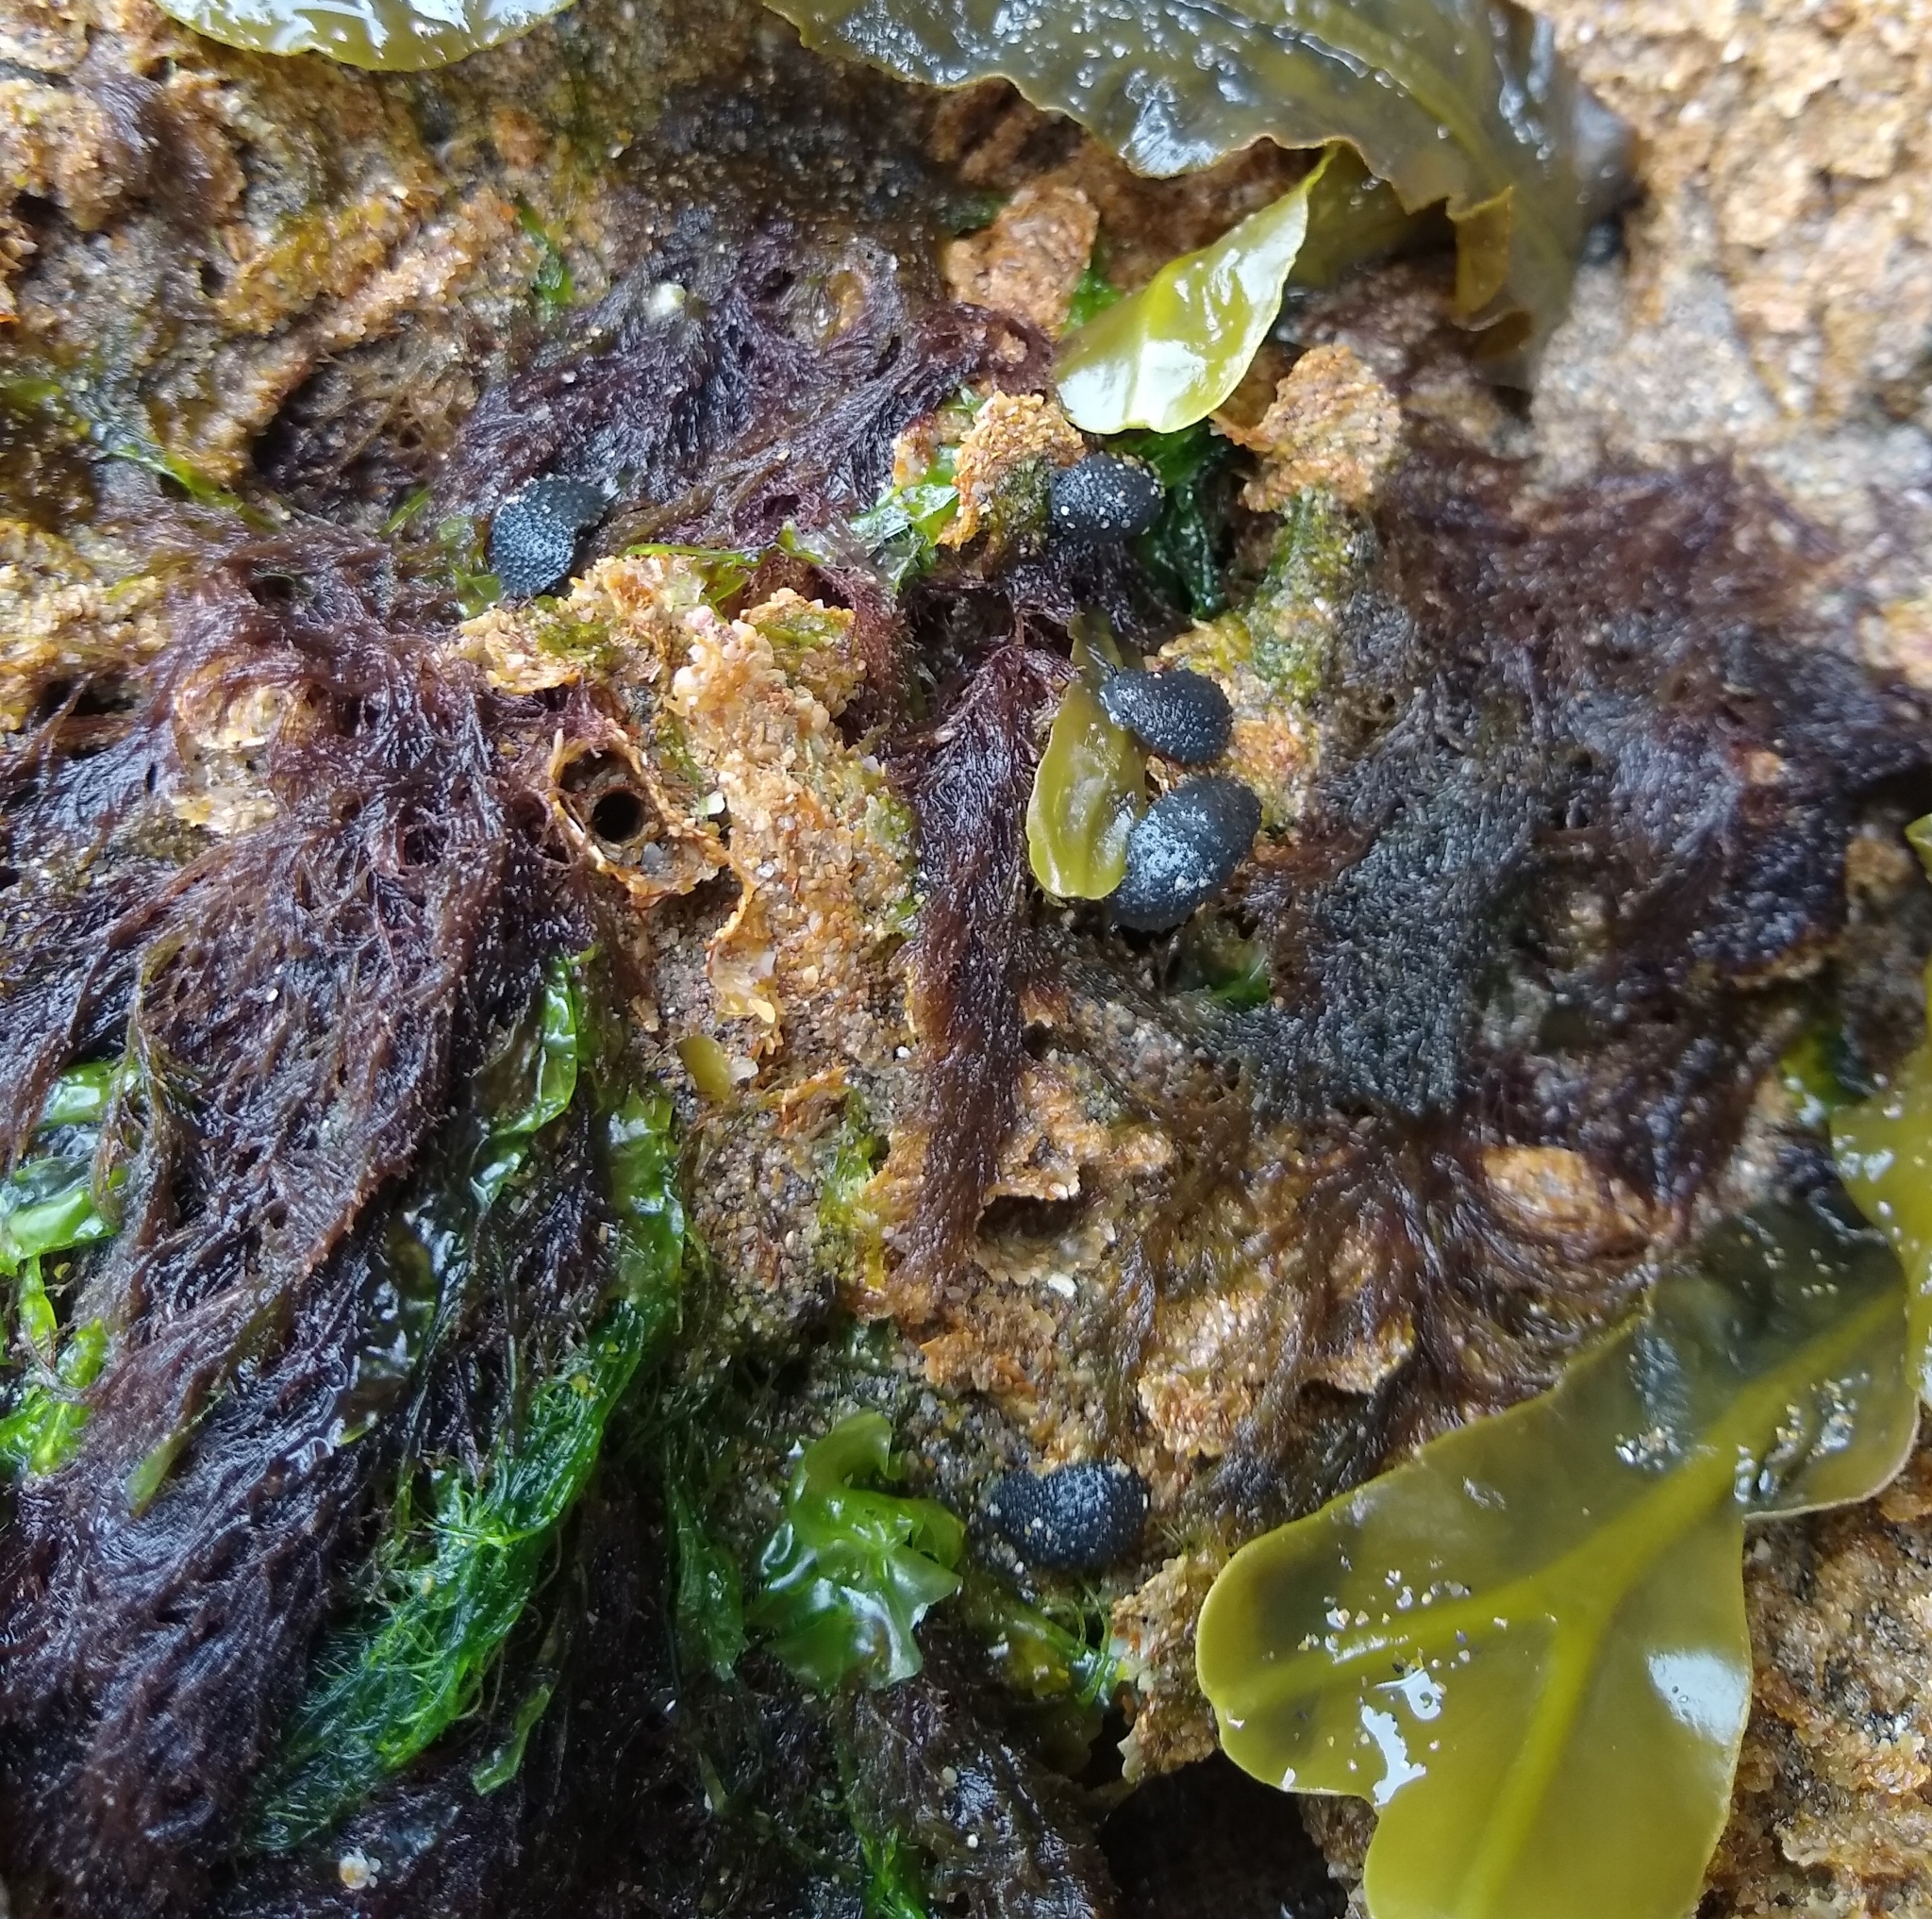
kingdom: Animalia
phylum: Mollusca
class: Gastropoda
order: Systellommatophora
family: Onchidiidae
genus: Onchidella
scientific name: Onchidella celtica
